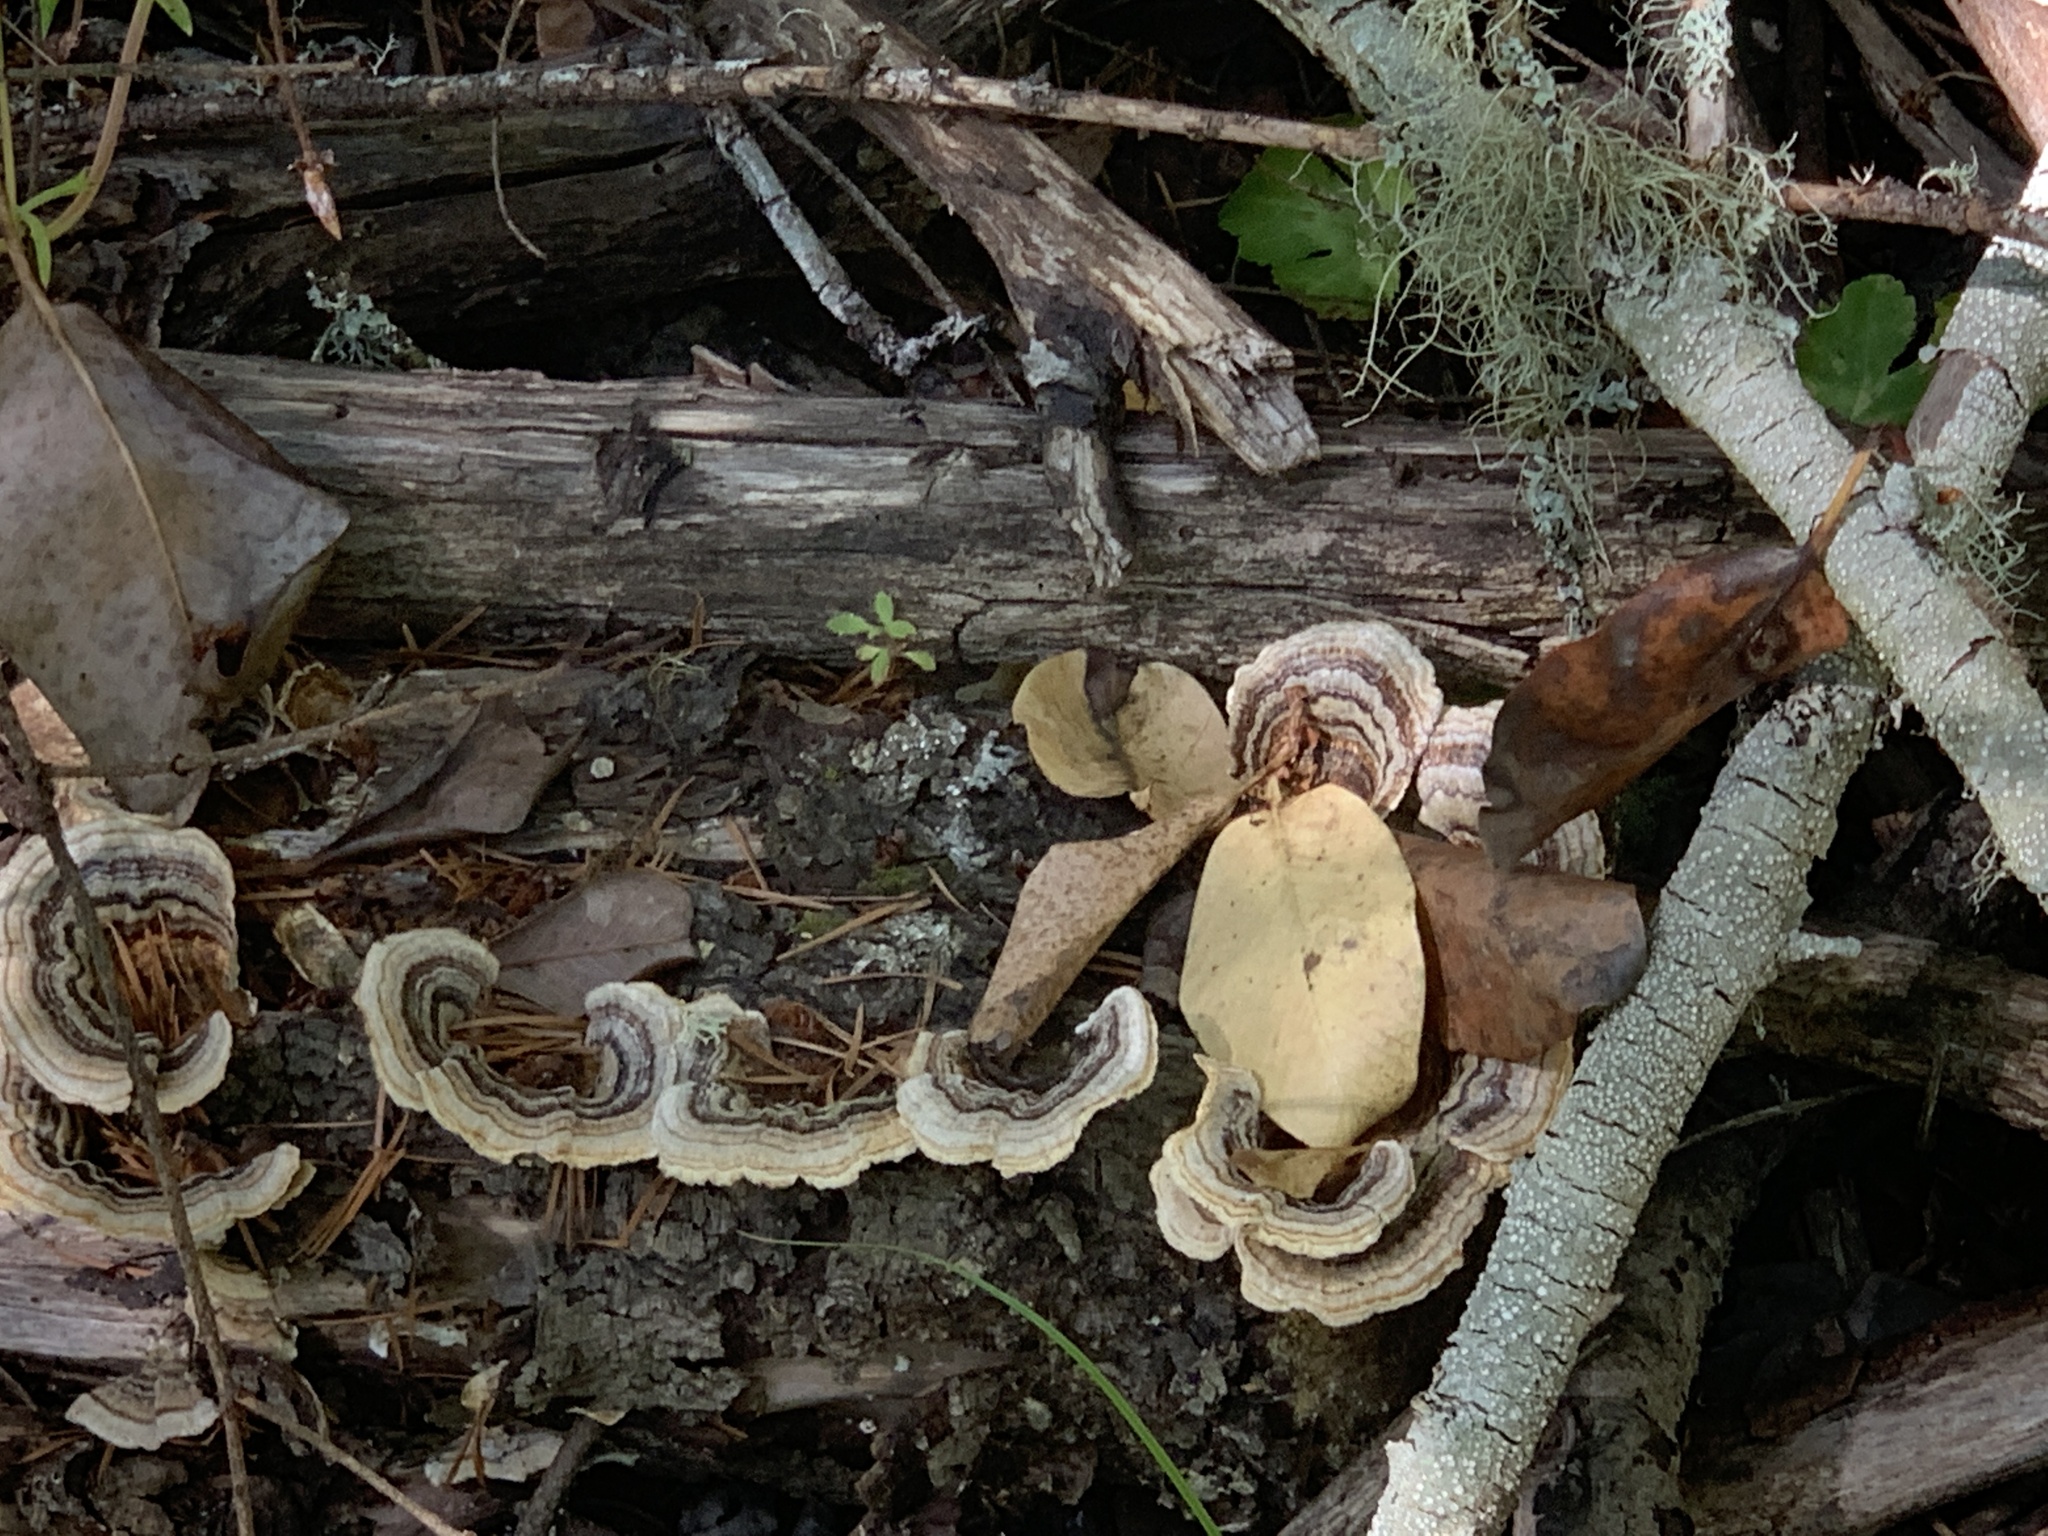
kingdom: Fungi
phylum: Basidiomycota
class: Agaricomycetes
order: Polyporales
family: Polyporaceae
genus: Trametes
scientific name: Trametes versicolor
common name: Turkeytail
